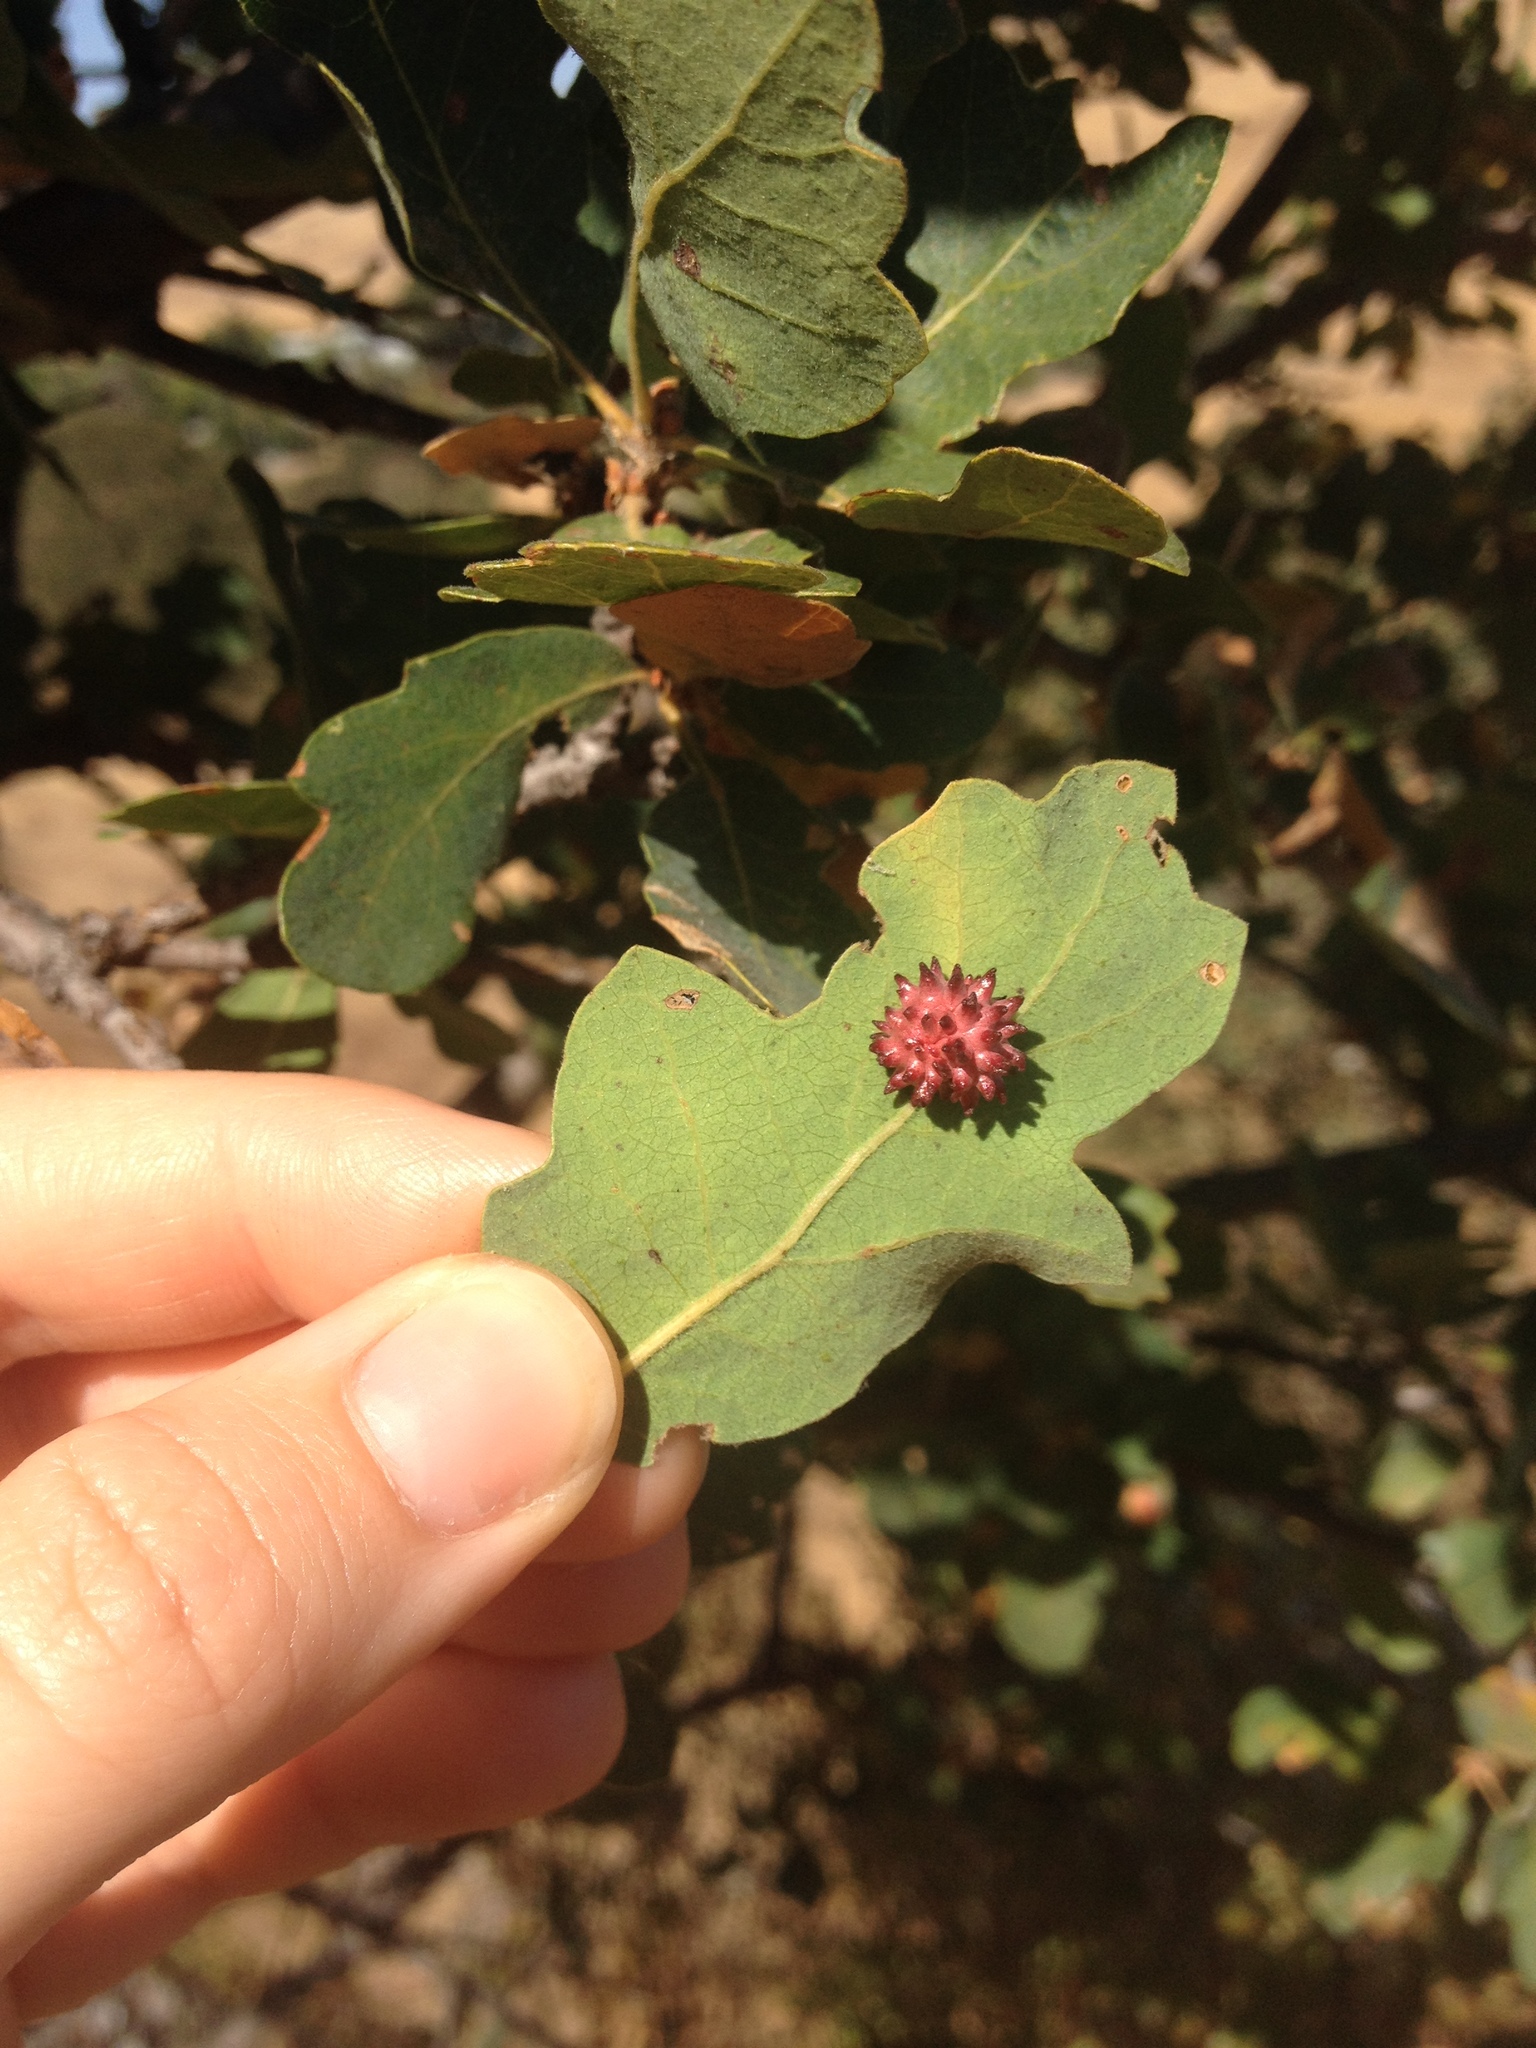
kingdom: Animalia
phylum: Arthropoda
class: Insecta
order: Hymenoptera
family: Cynipidae
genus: Cynips
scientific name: Cynips
